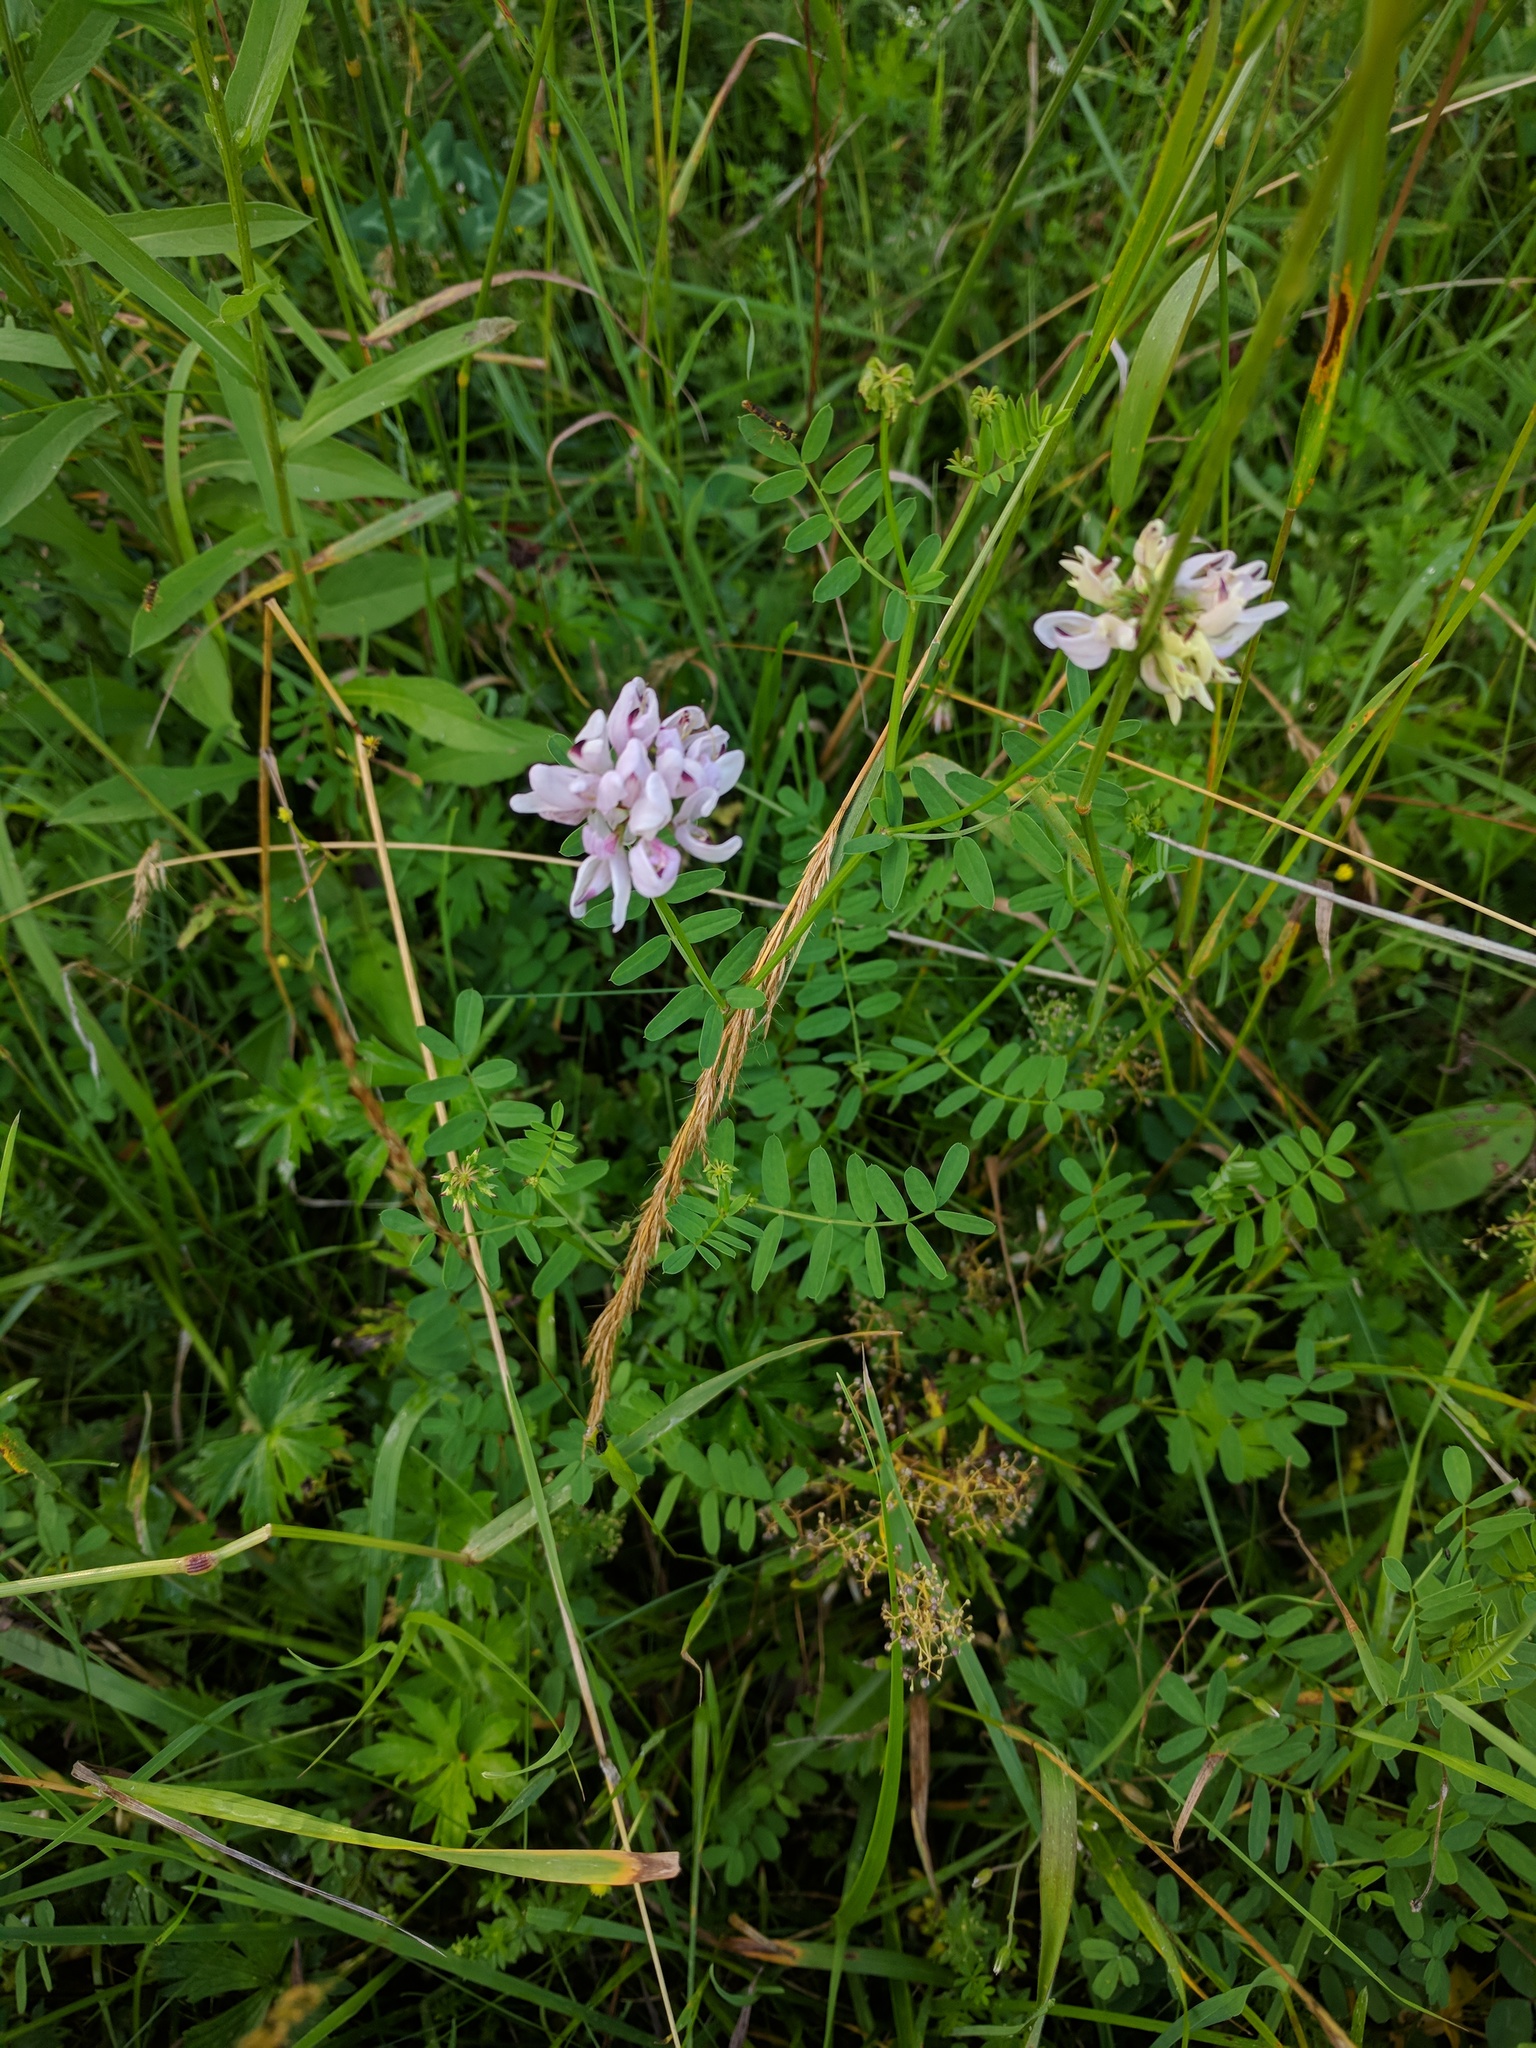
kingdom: Plantae
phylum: Tracheophyta
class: Magnoliopsida
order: Fabales
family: Fabaceae
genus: Coronilla
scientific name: Coronilla varia
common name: Crownvetch
